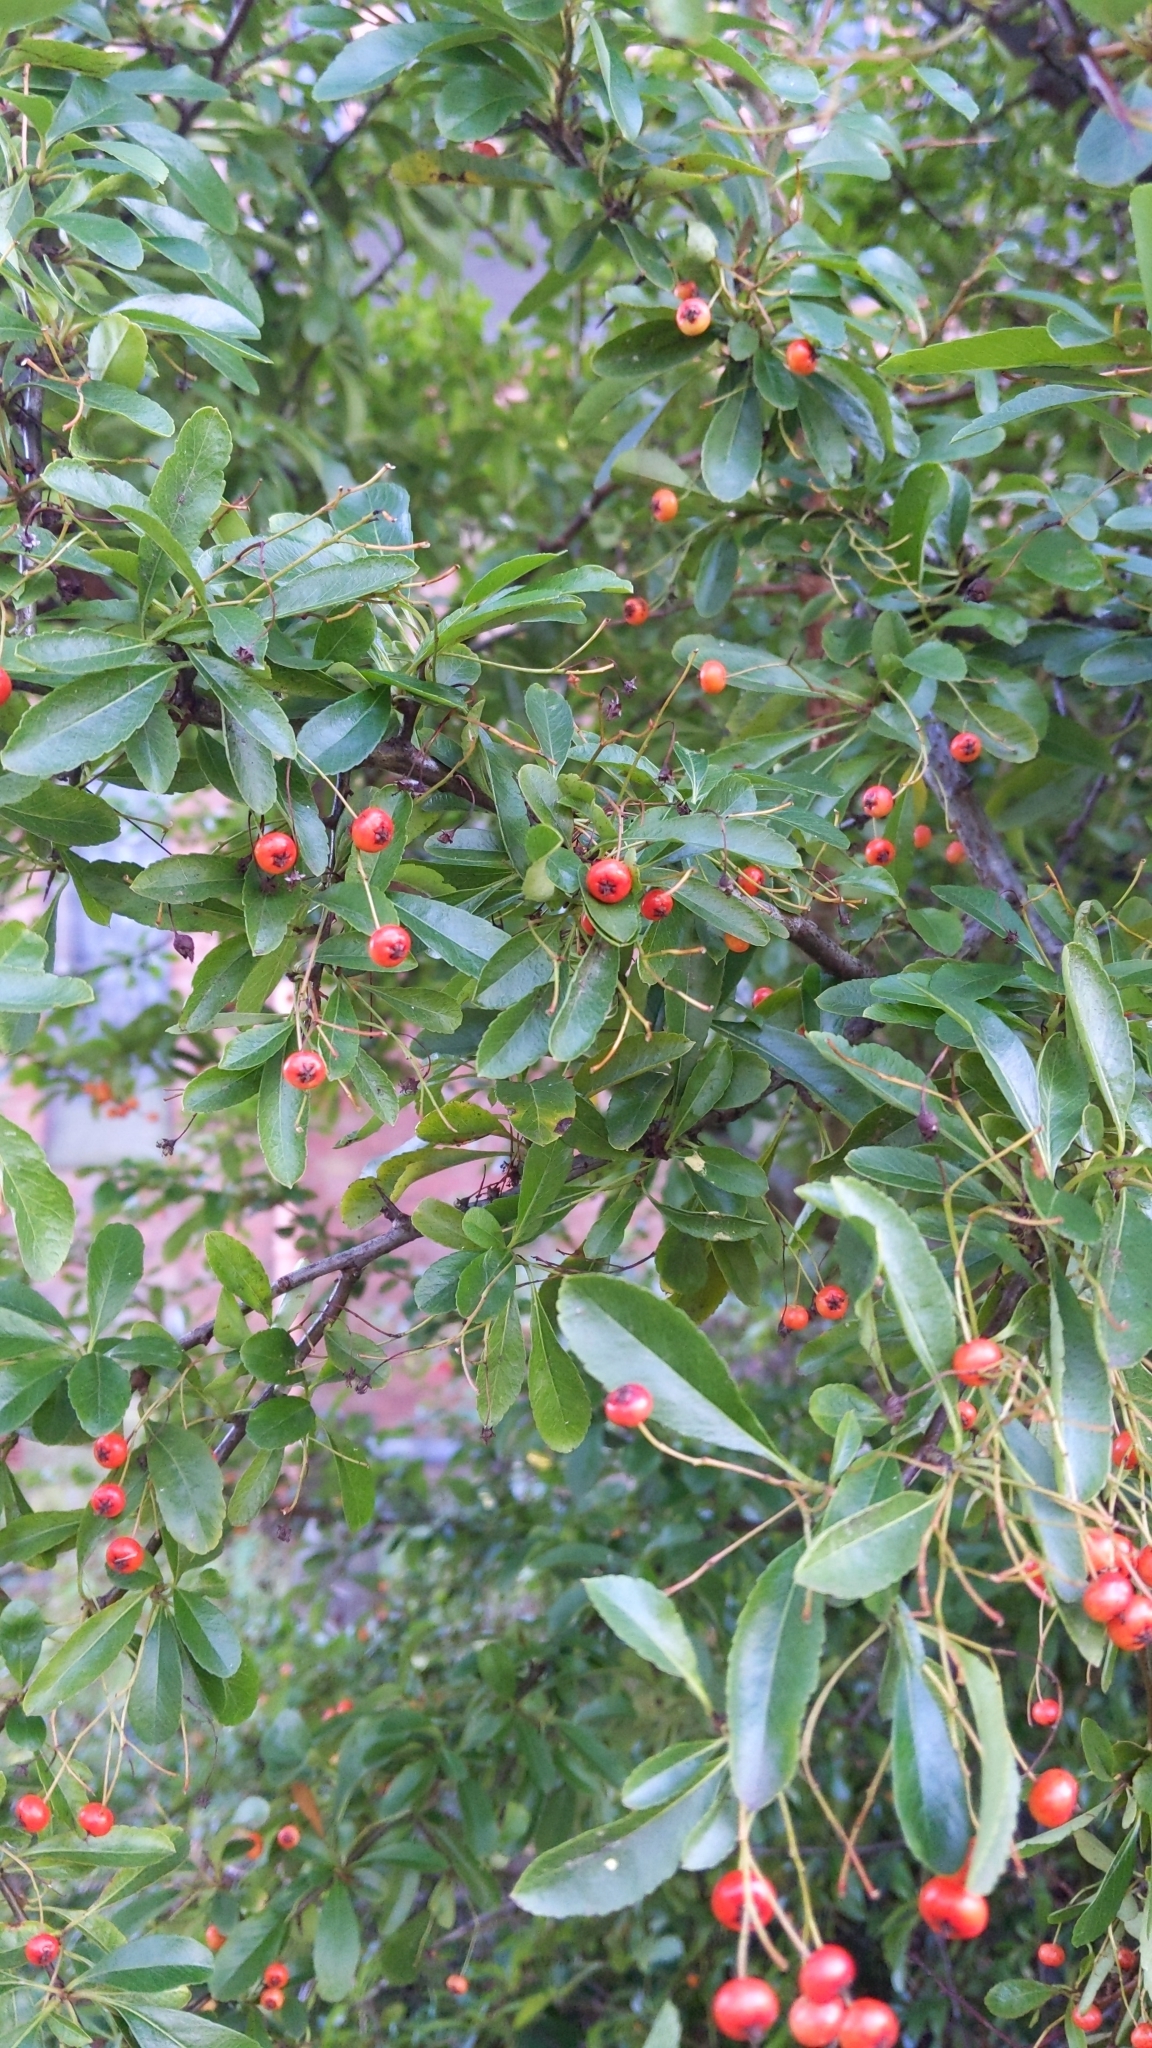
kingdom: Plantae
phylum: Tracheophyta
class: Magnoliopsida
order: Rosales
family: Rosaceae
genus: Pyracantha
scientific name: Pyracantha coccinea
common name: Firethorn
